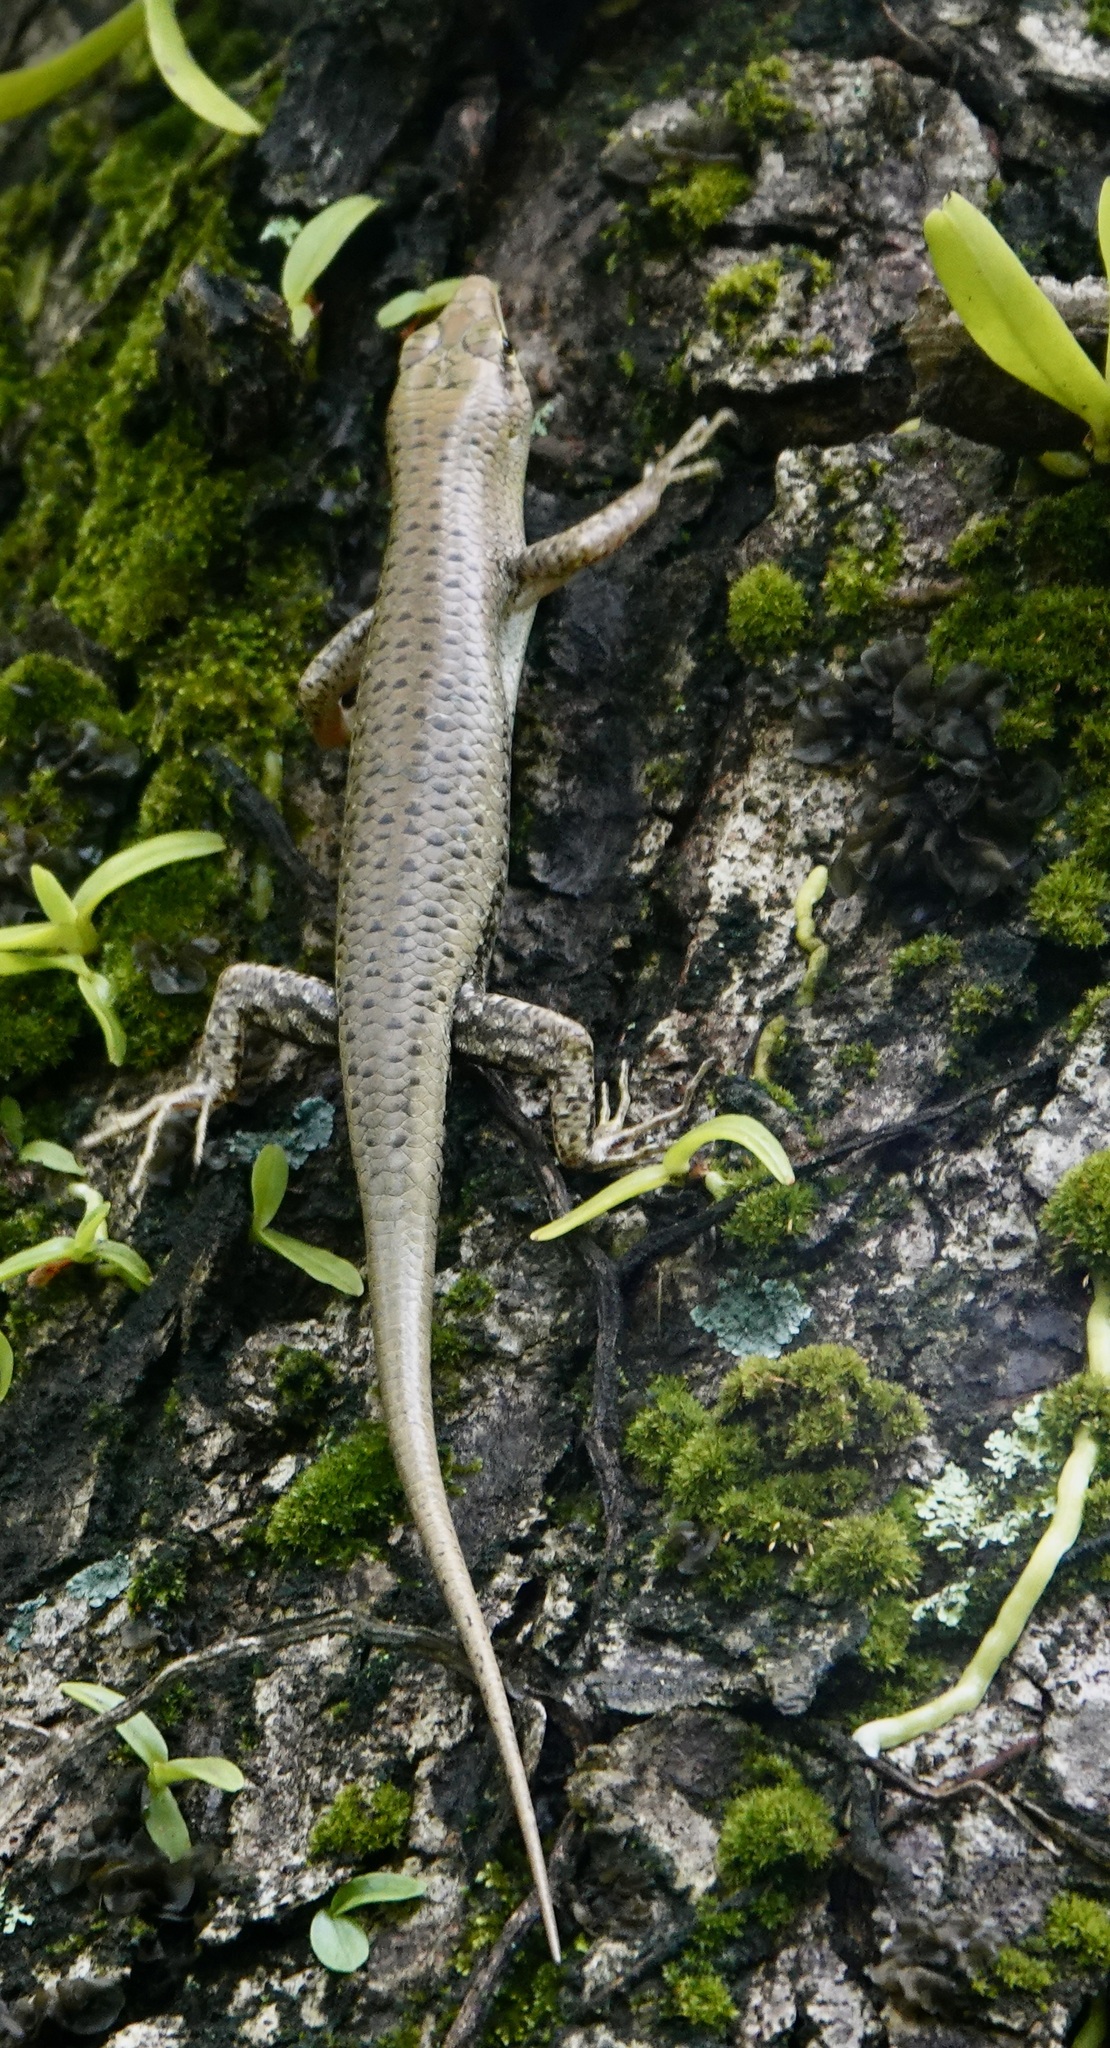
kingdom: Animalia
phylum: Chordata
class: Squamata
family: Scincidae
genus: Lamprolepis
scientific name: Lamprolepis smaragdina
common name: Emerald skink
